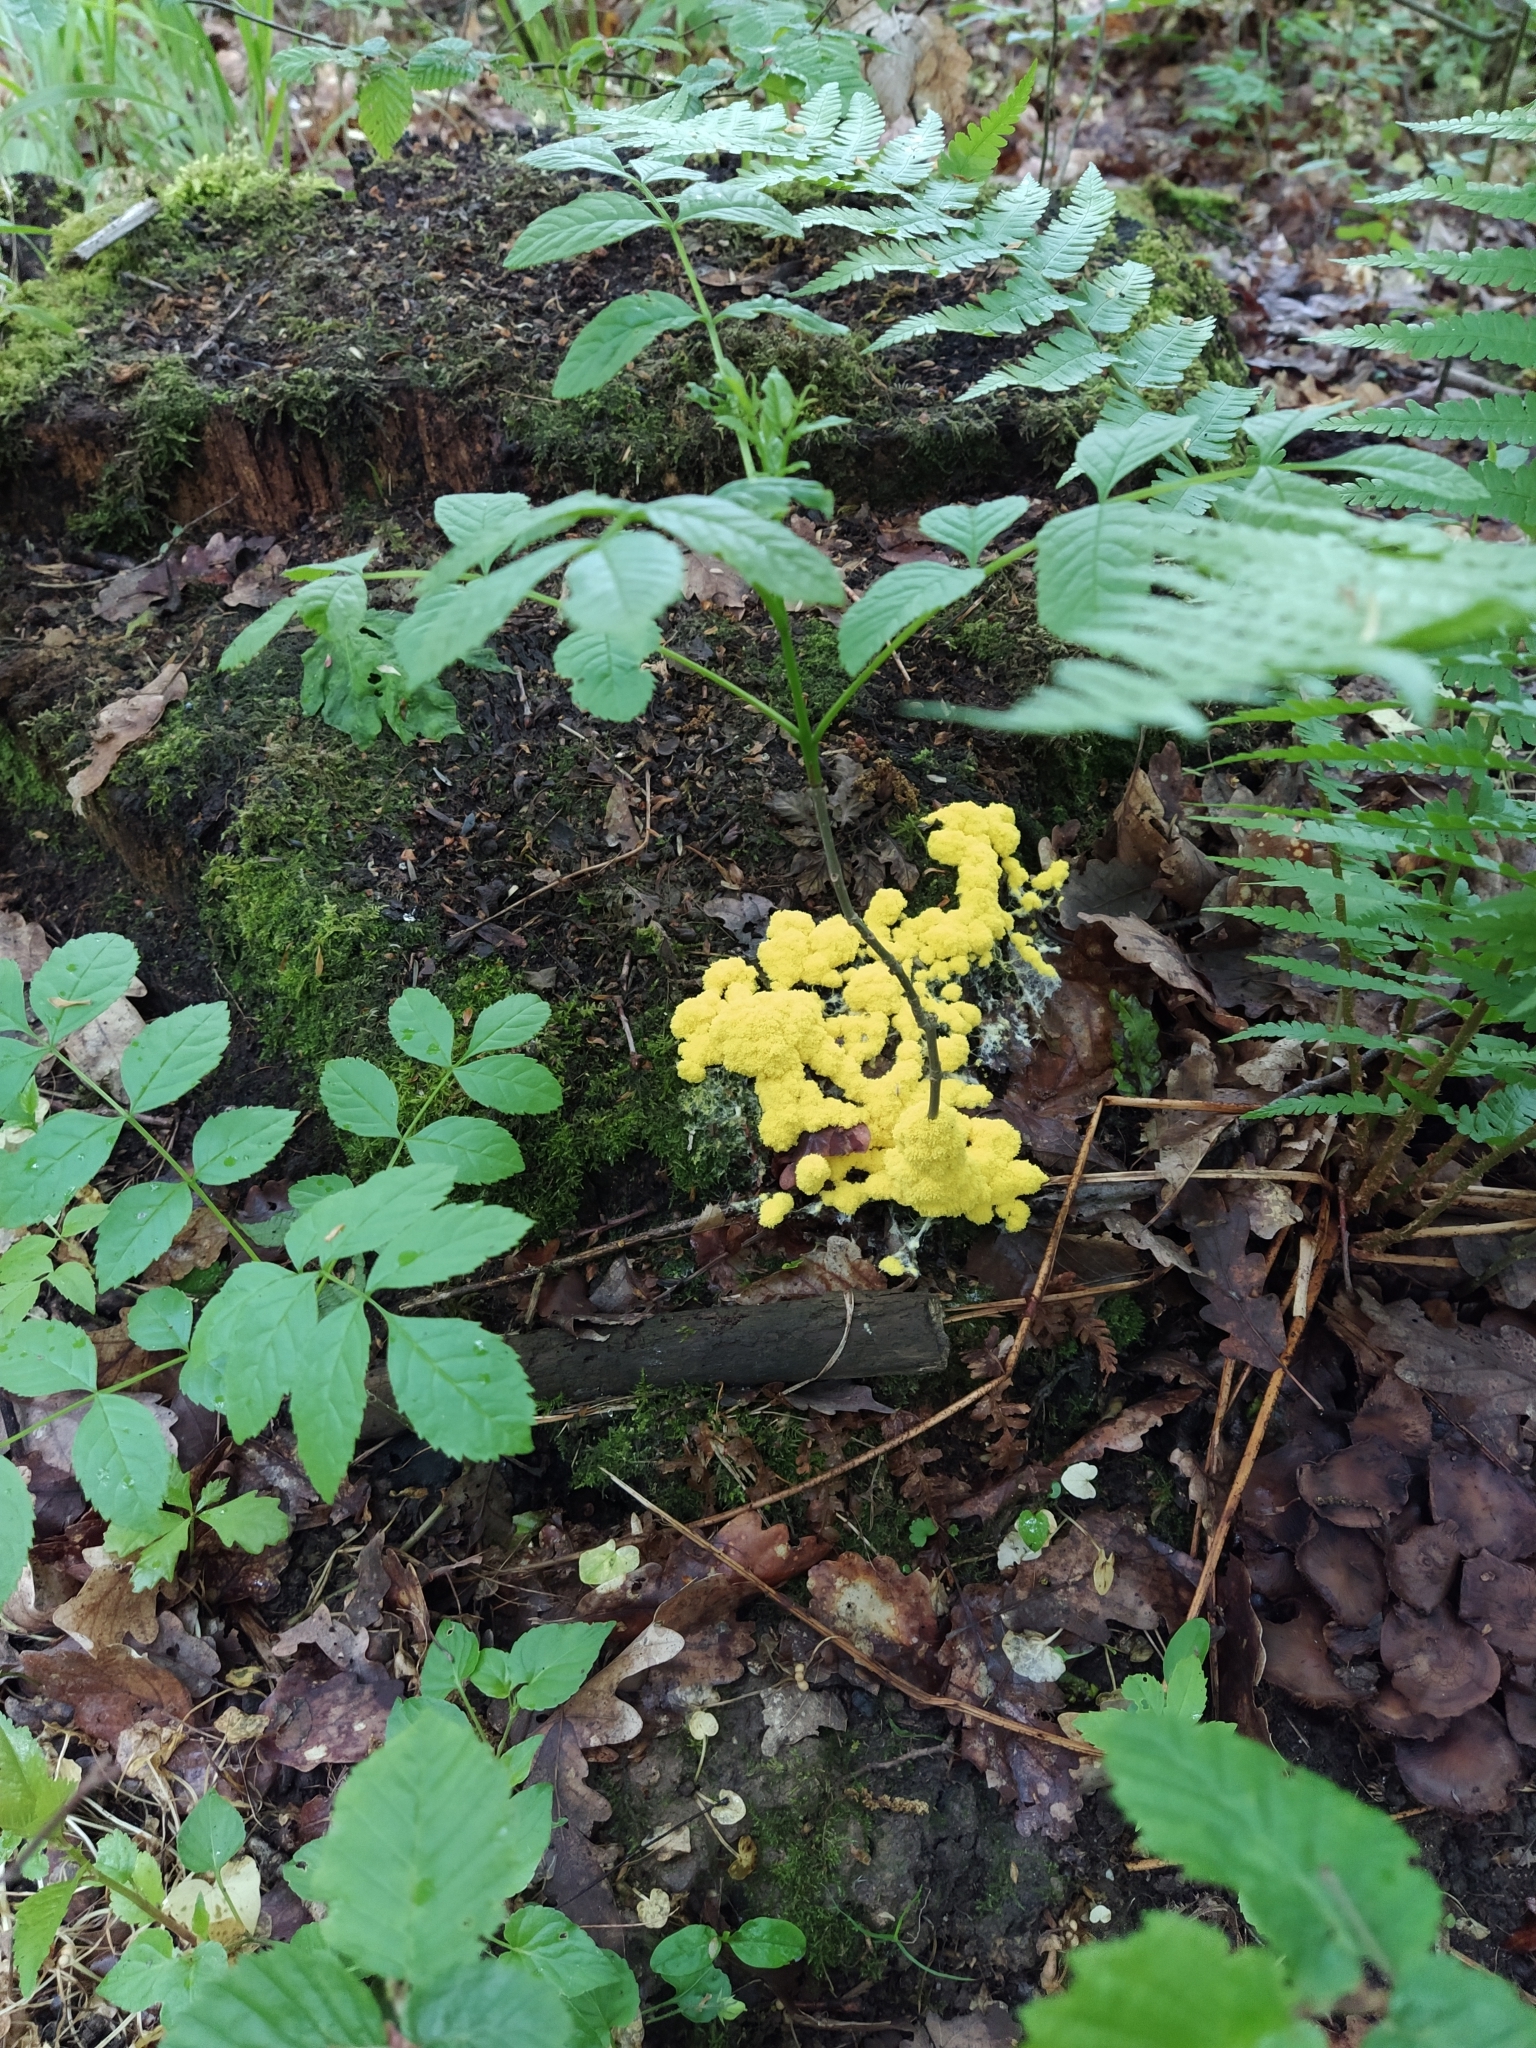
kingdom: Protozoa
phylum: Mycetozoa
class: Myxomycetes
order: Physarales
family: Physaraceae
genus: Fuligo
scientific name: Fuligo septica
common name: Dog vomit slime mold
